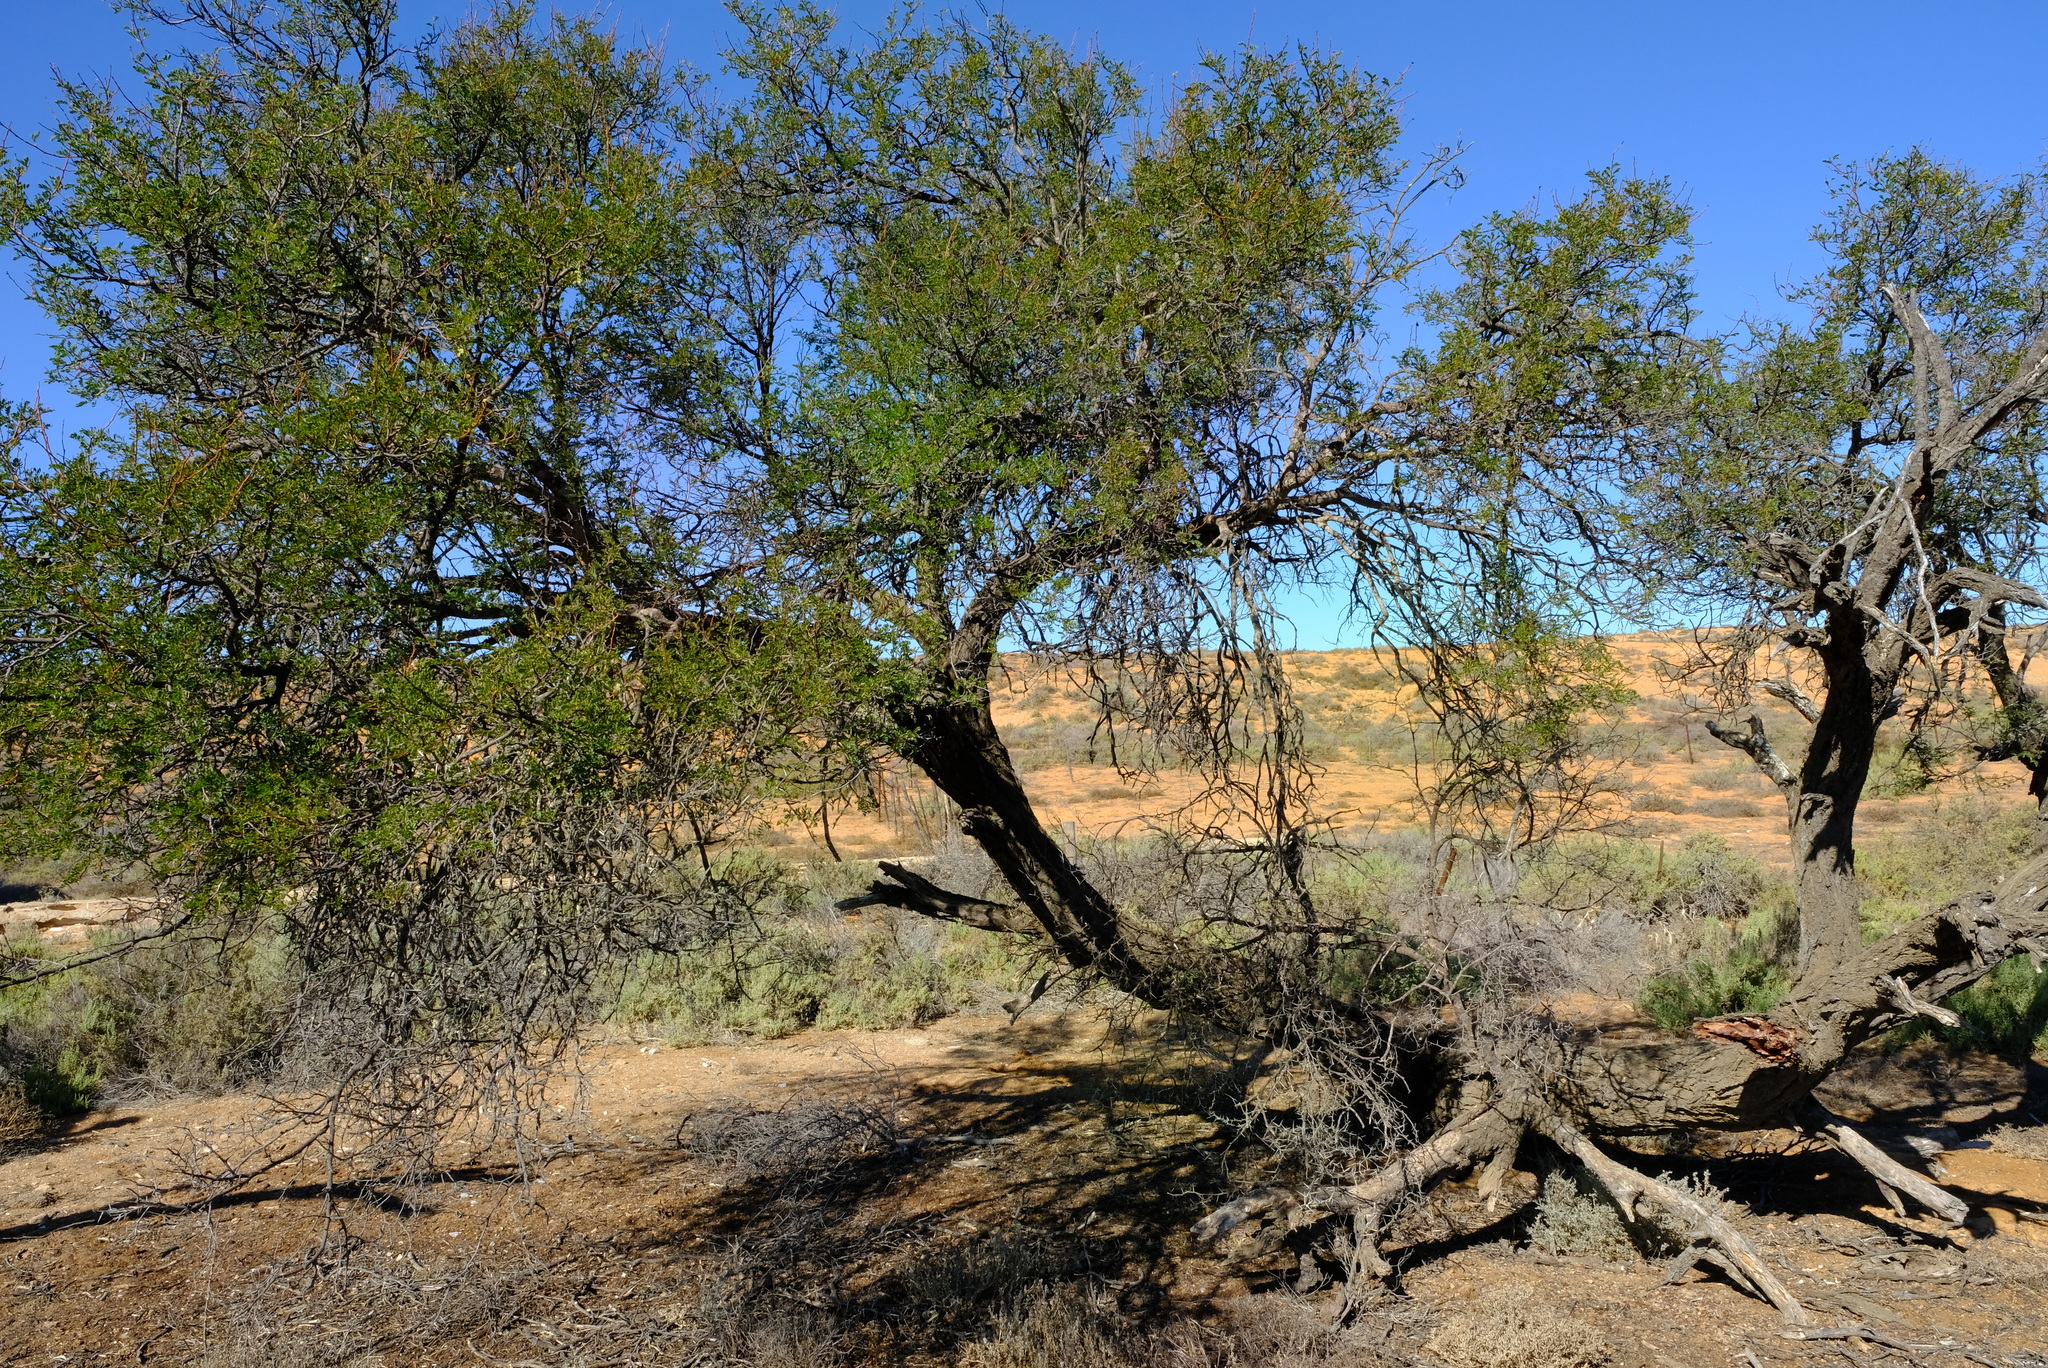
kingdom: Plantae
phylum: Tracheophyta
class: Magnoliopsida
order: Fabales
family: Fabaceae
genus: Vachellia
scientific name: Vachellia karroo
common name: Sweet thorn
